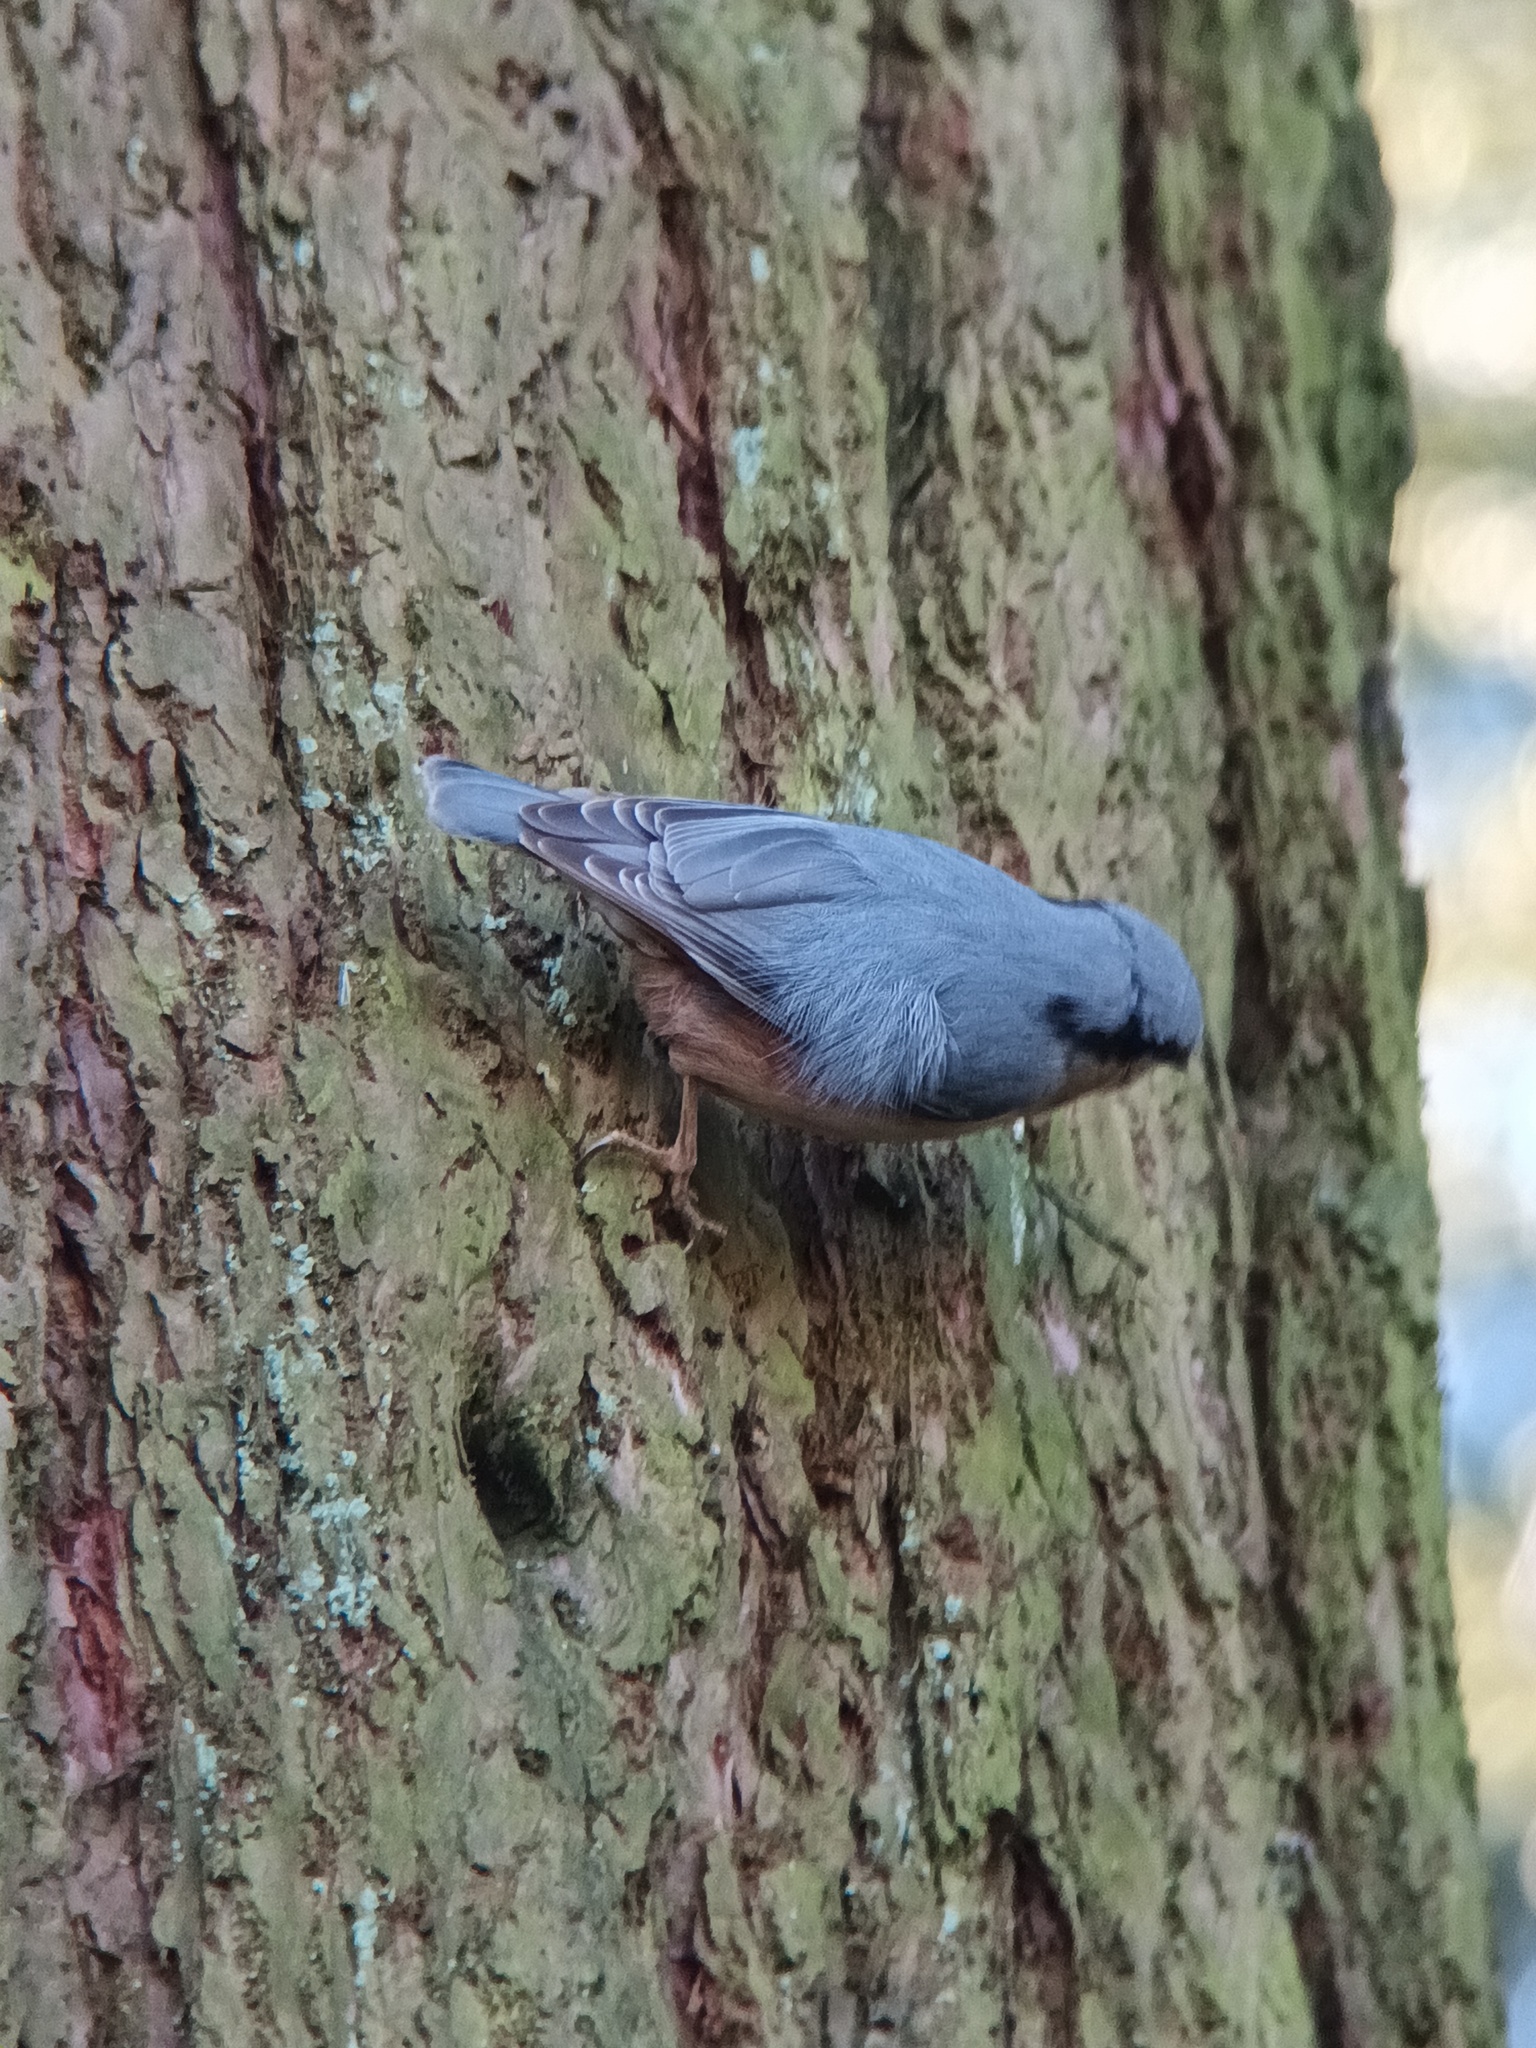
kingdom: Animalia
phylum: Chordata
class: Aves
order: Passeriformes
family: Sittidae
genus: Sitta
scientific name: Sitta europaea
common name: Eurasian nuthatch
